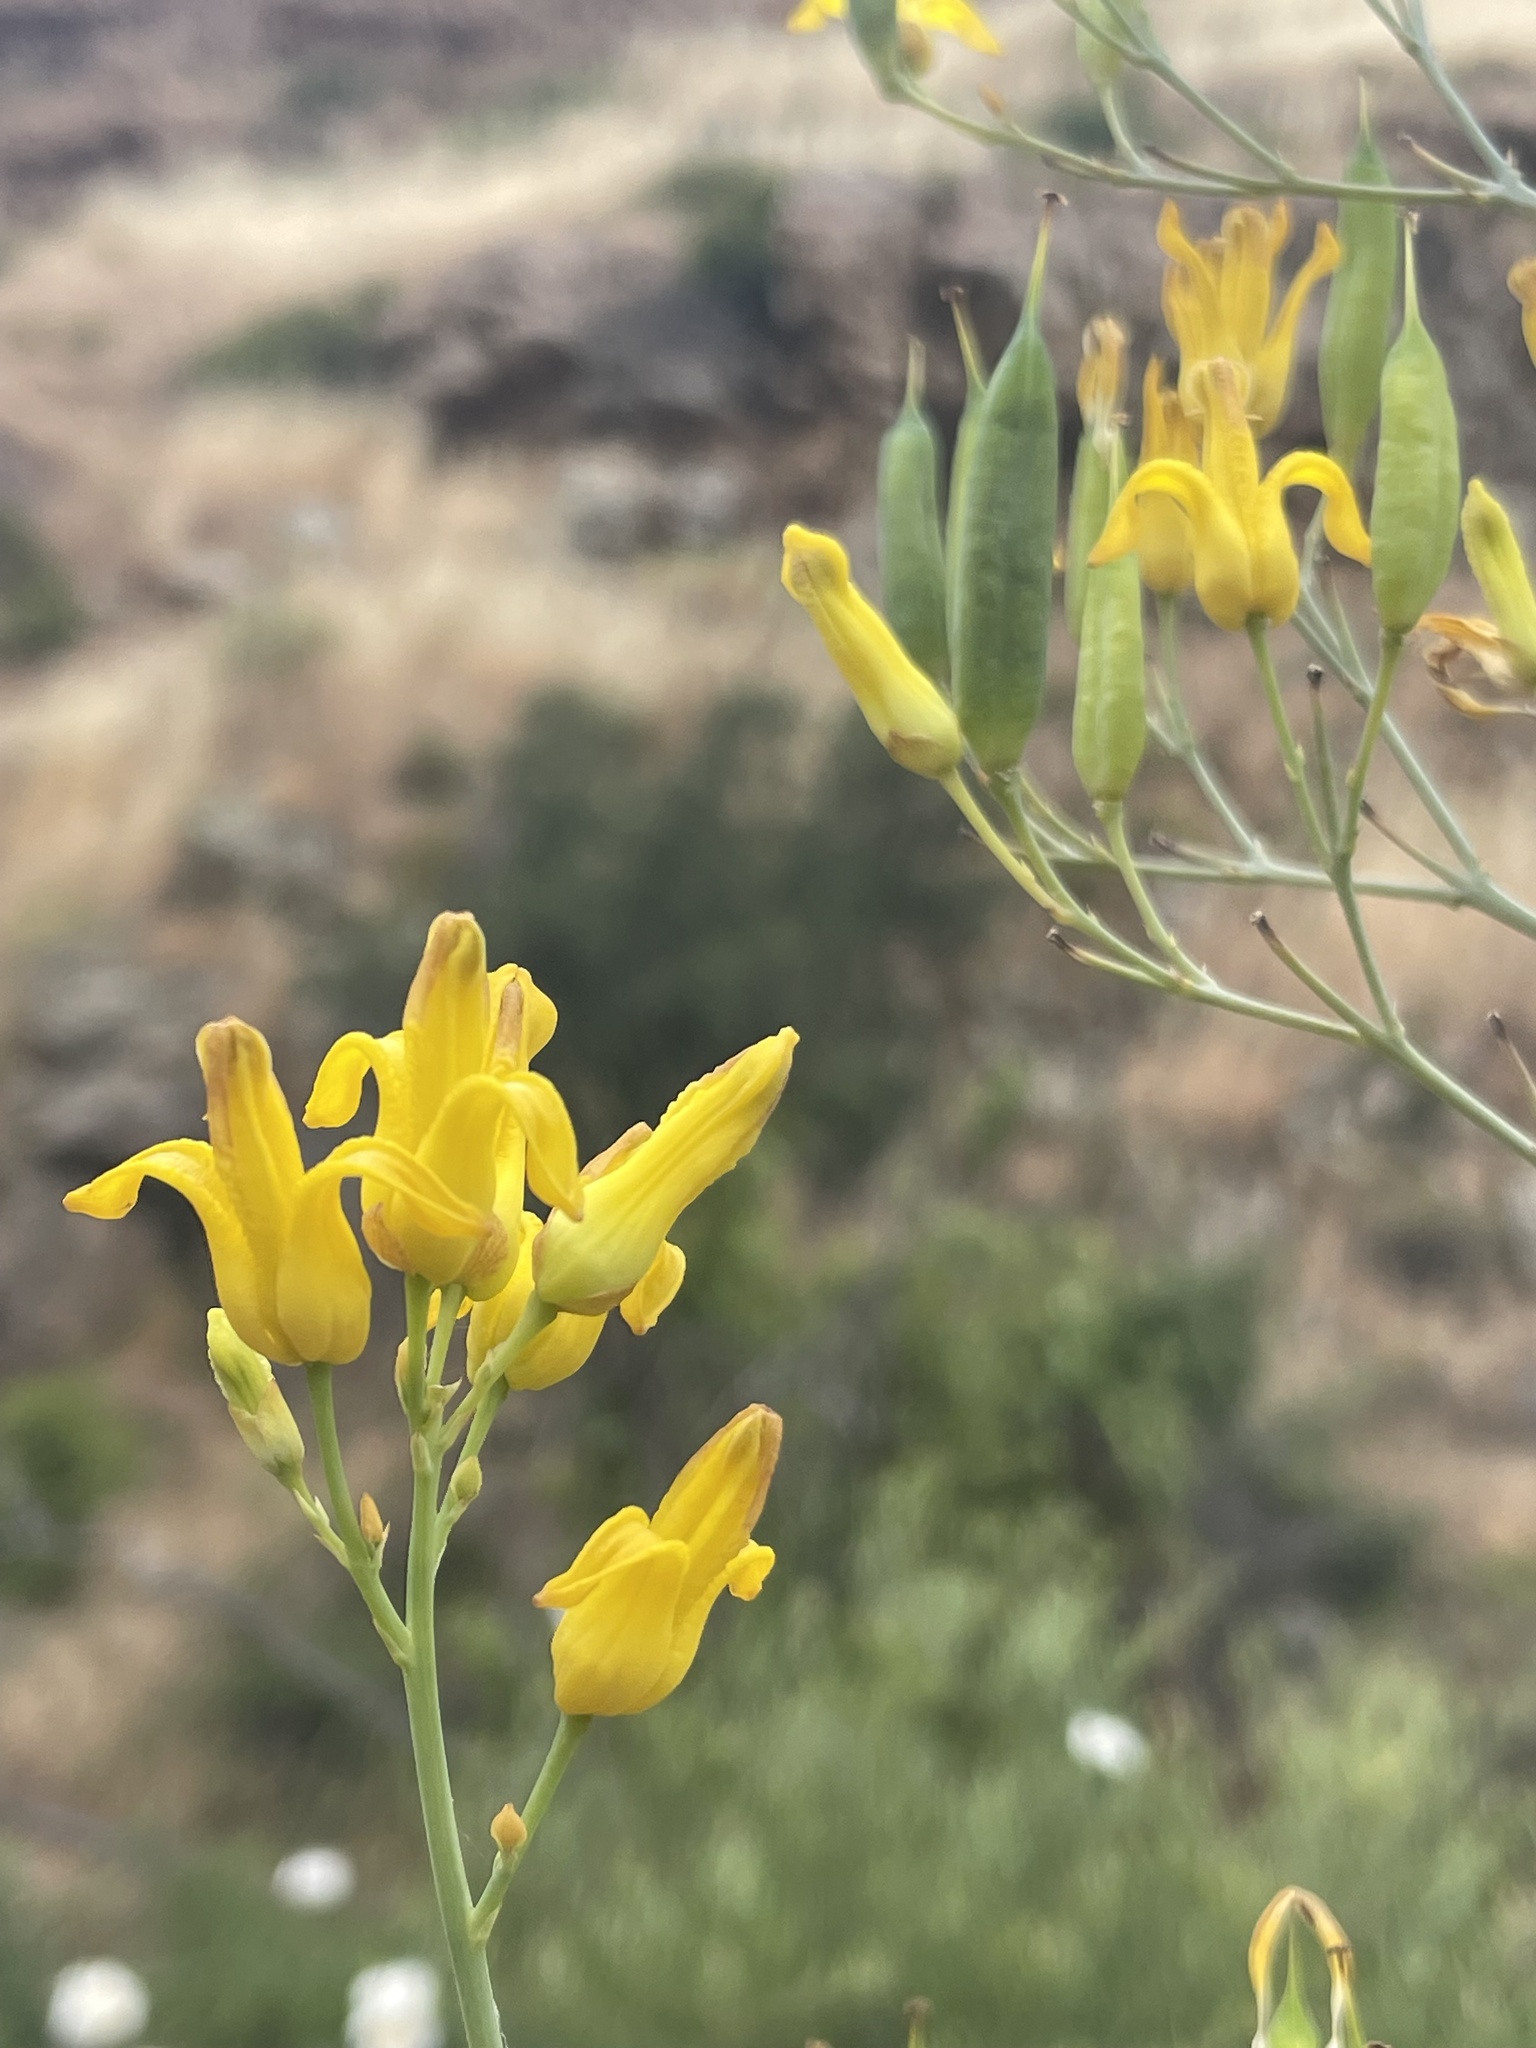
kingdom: Plantae
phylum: Tracheophyta
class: Magnoliopsida
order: Ranunculales
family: Papaveraceae
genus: Ehrendorferia
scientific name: Ehrendorferia chrysantha
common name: Golden eardrops
